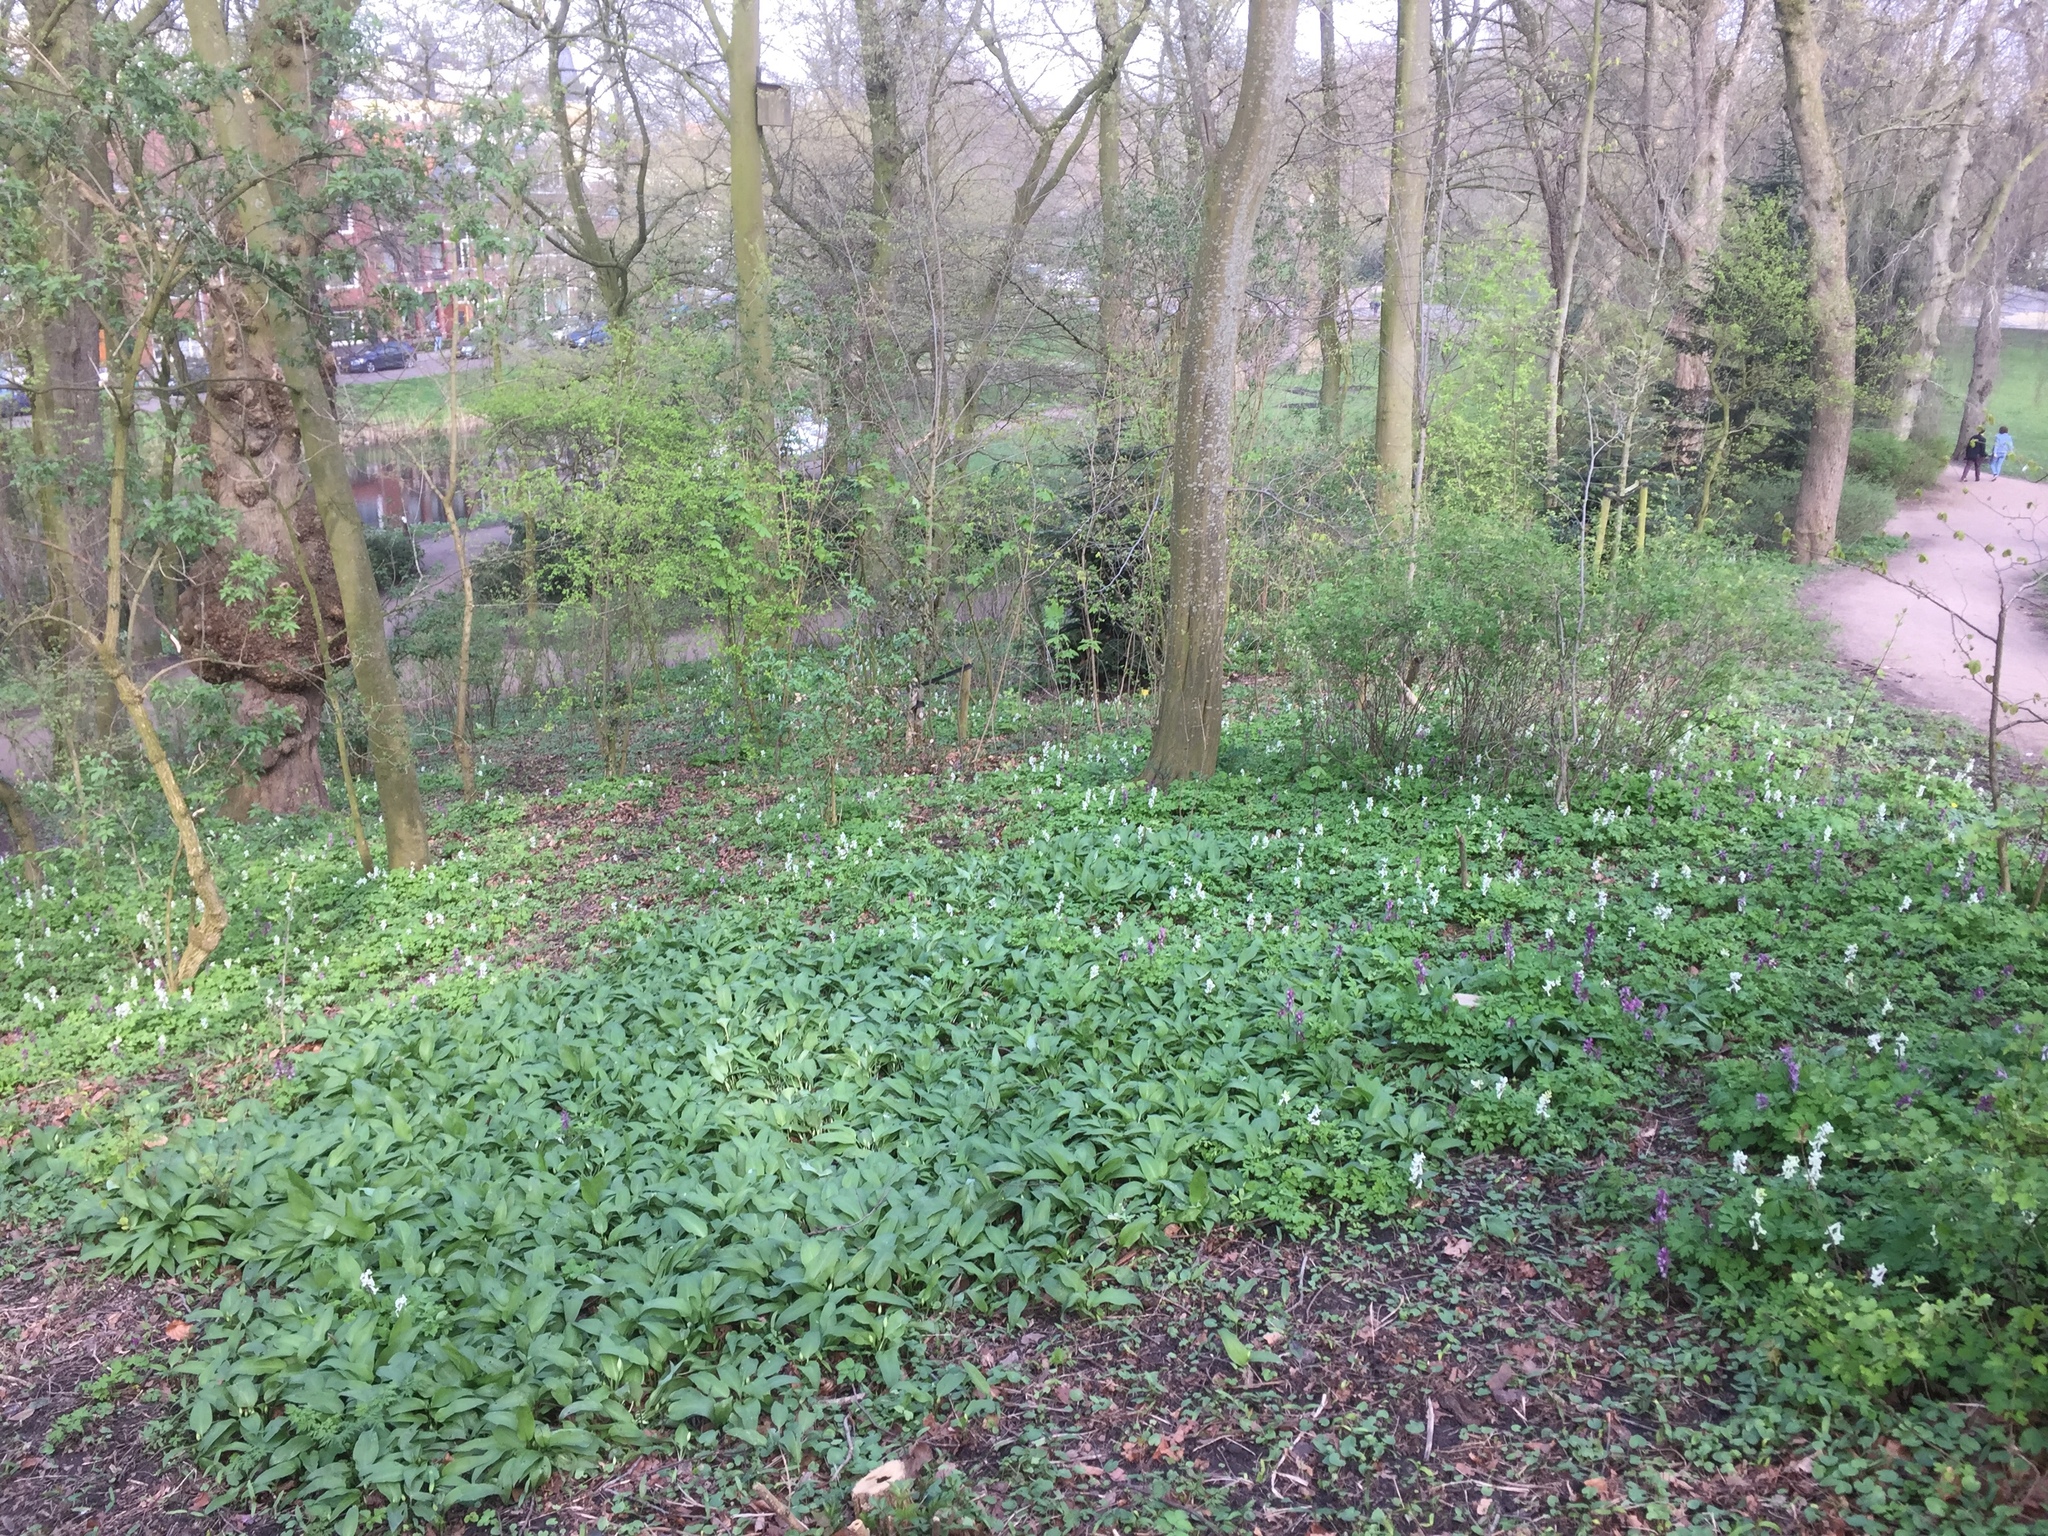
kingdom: Plantae
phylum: Tracheophyta
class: Liliopsida
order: Asparagales
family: Amaryllidaceae
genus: Allium
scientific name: Allium ursinum
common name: Ramsons
